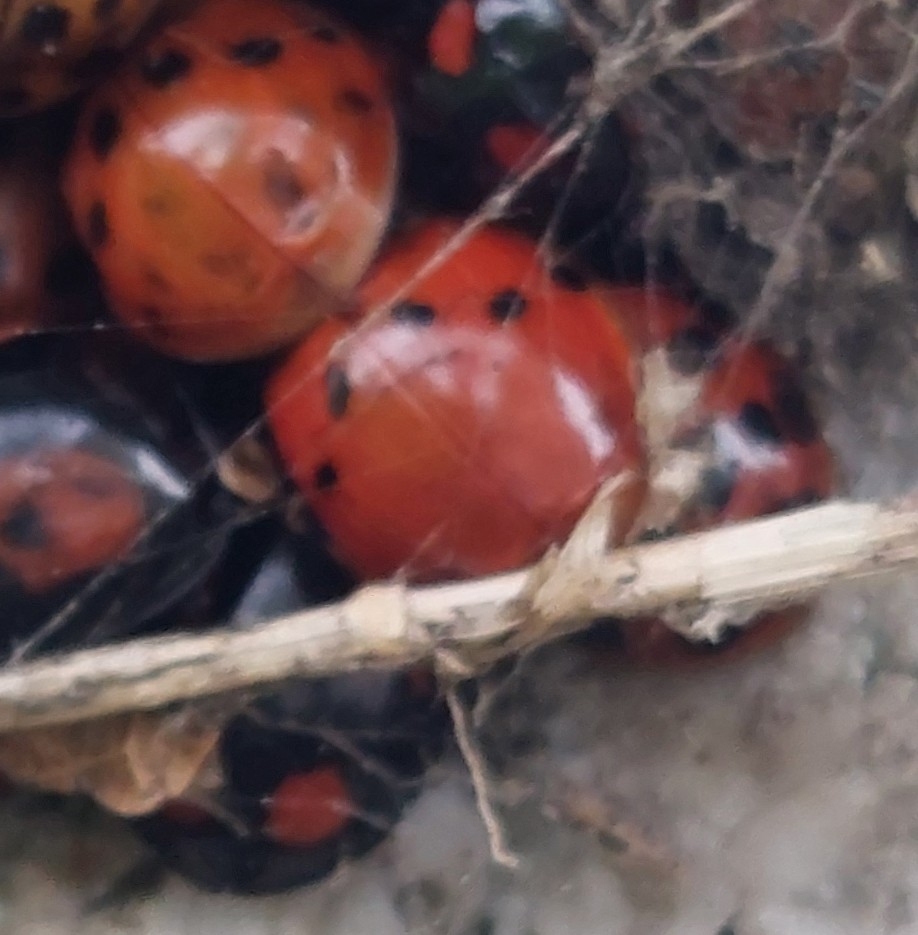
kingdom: Animalia
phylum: Arthropoda
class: Insecta
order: Coleoptera
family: Coccinellidae
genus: Harmonia
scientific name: Harmonia axyridis
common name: Harlequin ladybird
